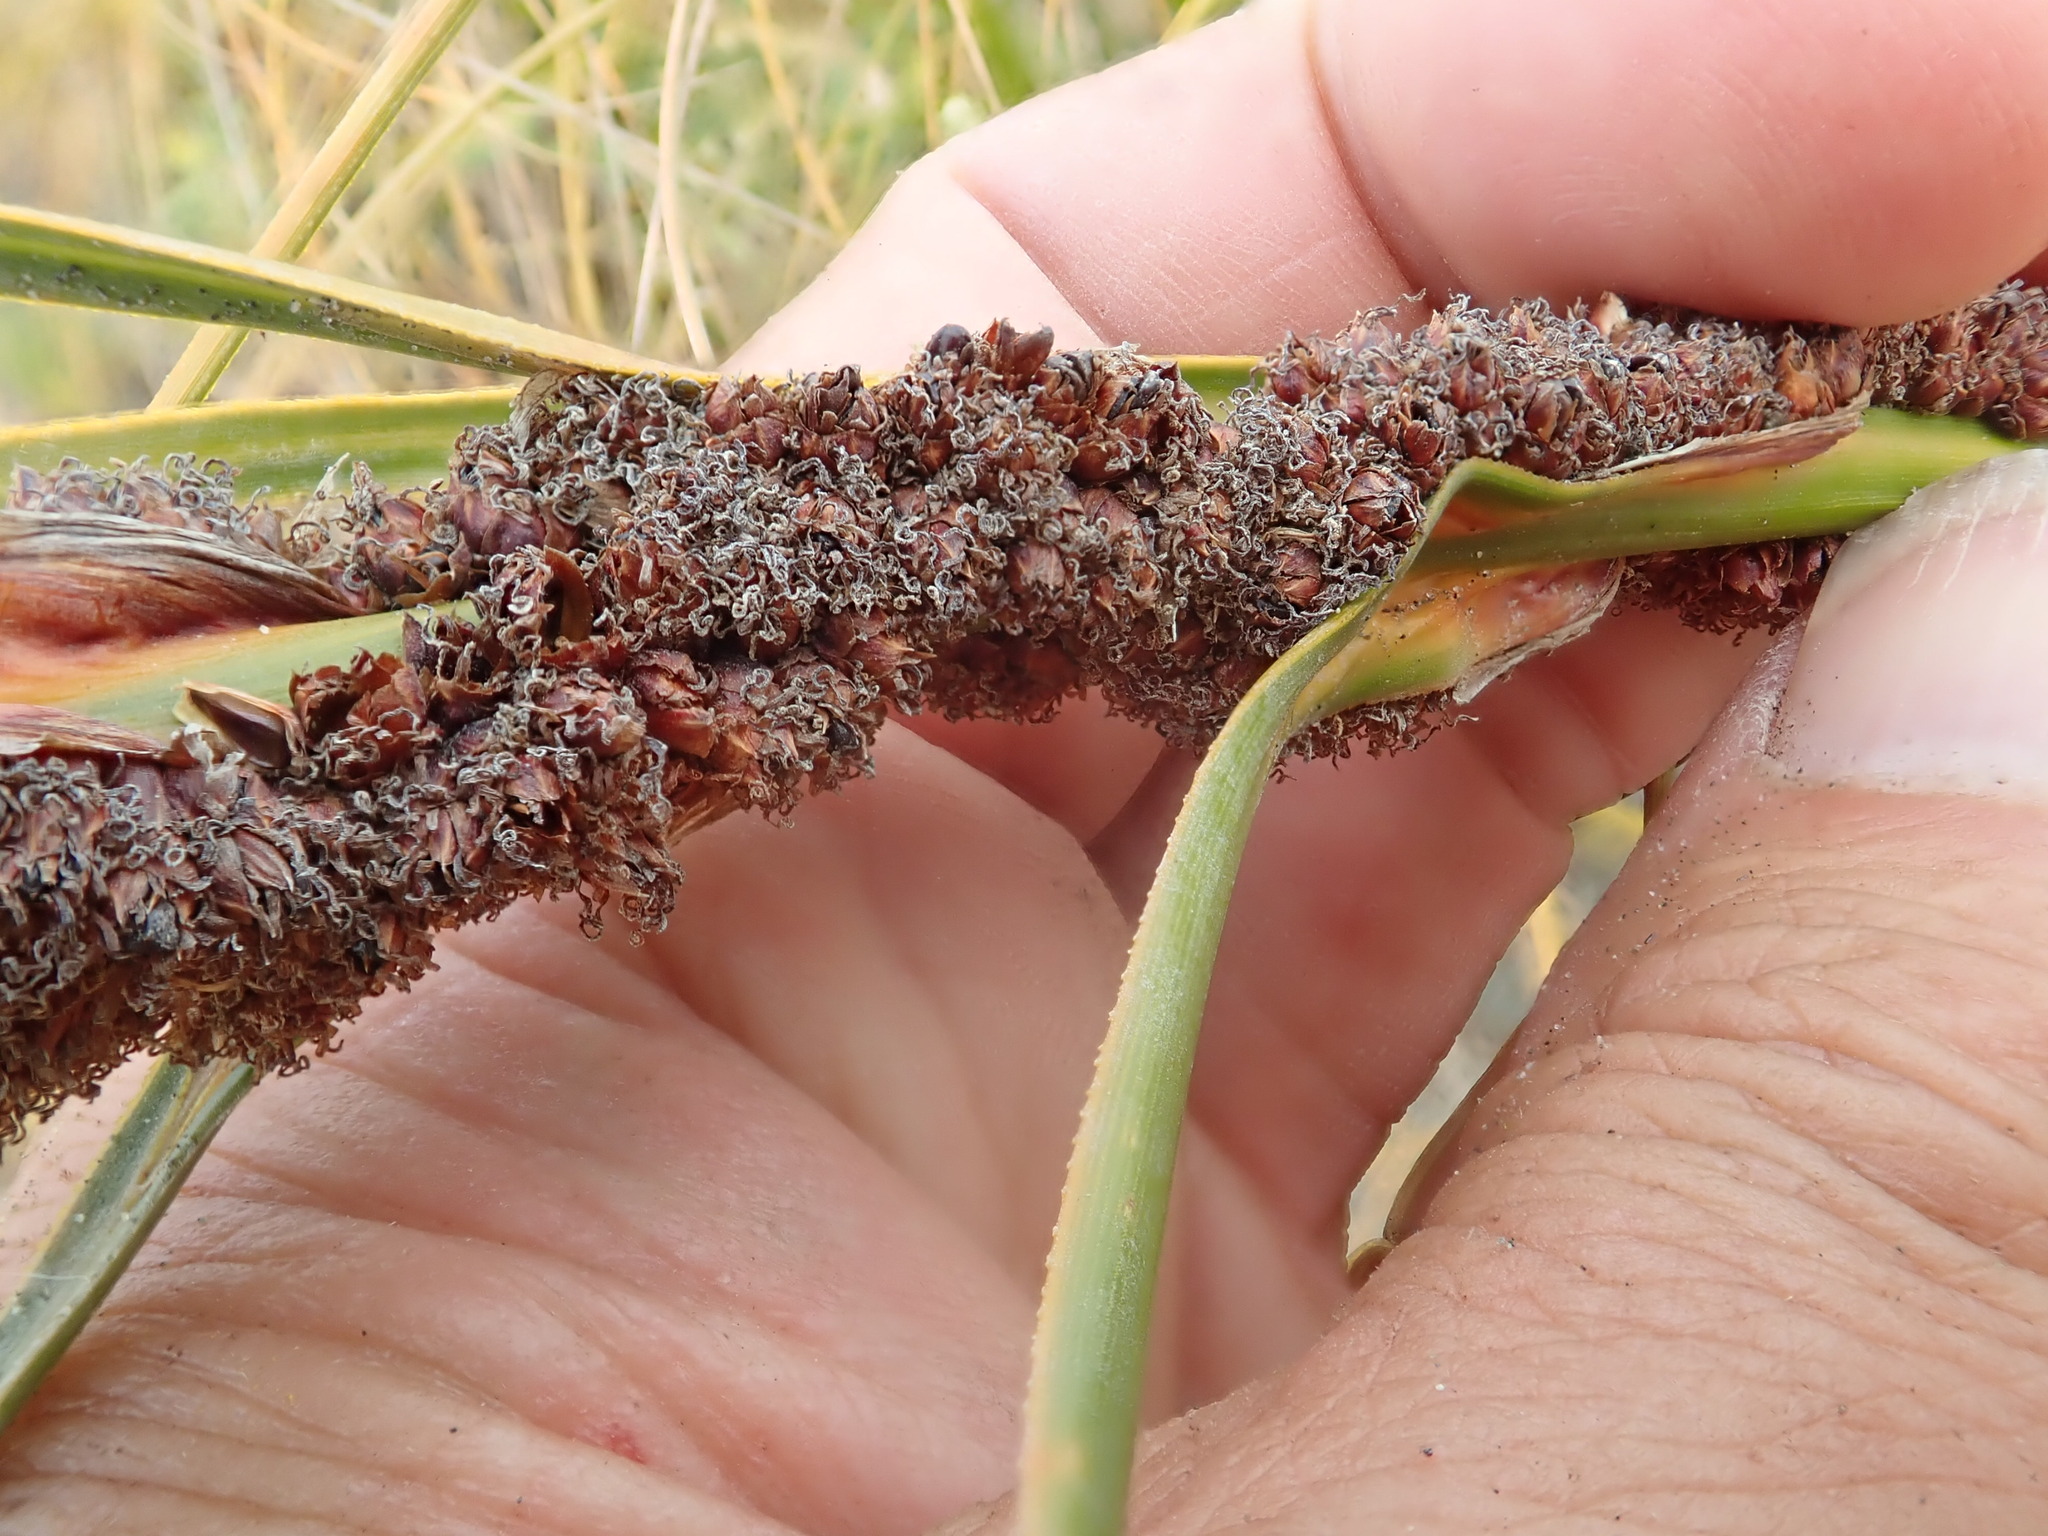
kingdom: Plantae
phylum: Tracheophyta
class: Liliopsida
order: Poales
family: Cyperaceae
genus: Ficinia
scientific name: Ficinia spiralis
